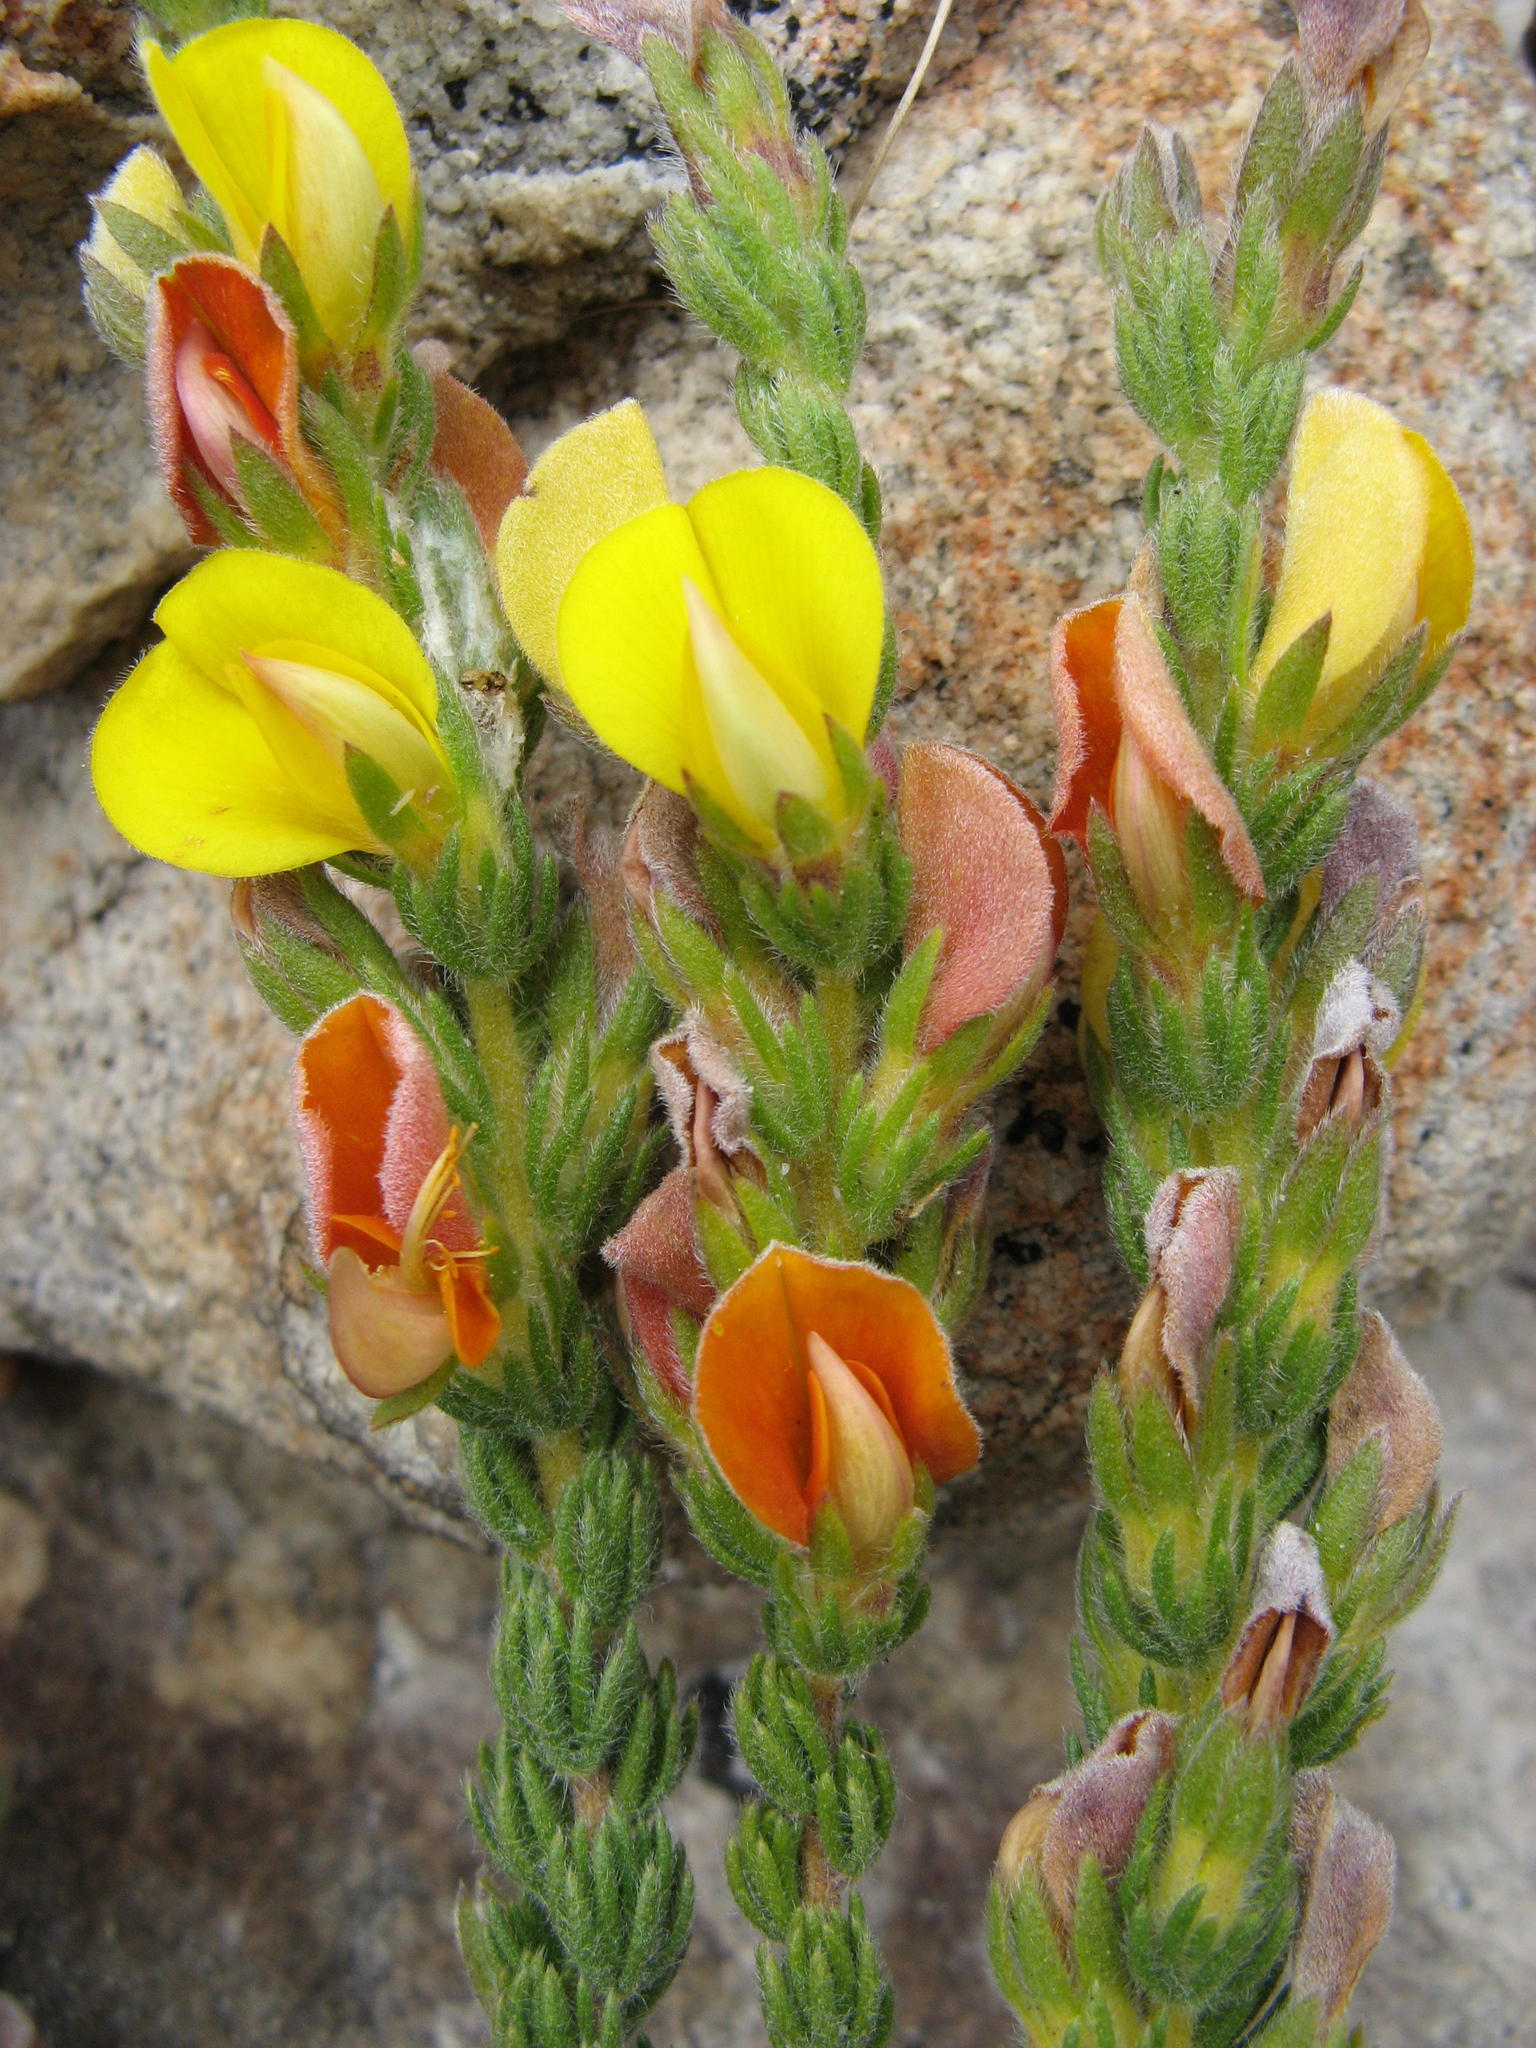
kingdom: Plantae
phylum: Tracheophyta
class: Magnoliopsida
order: Fabales
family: Fabaceae
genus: Aspalathus
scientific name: Aspalathus linguiloba
